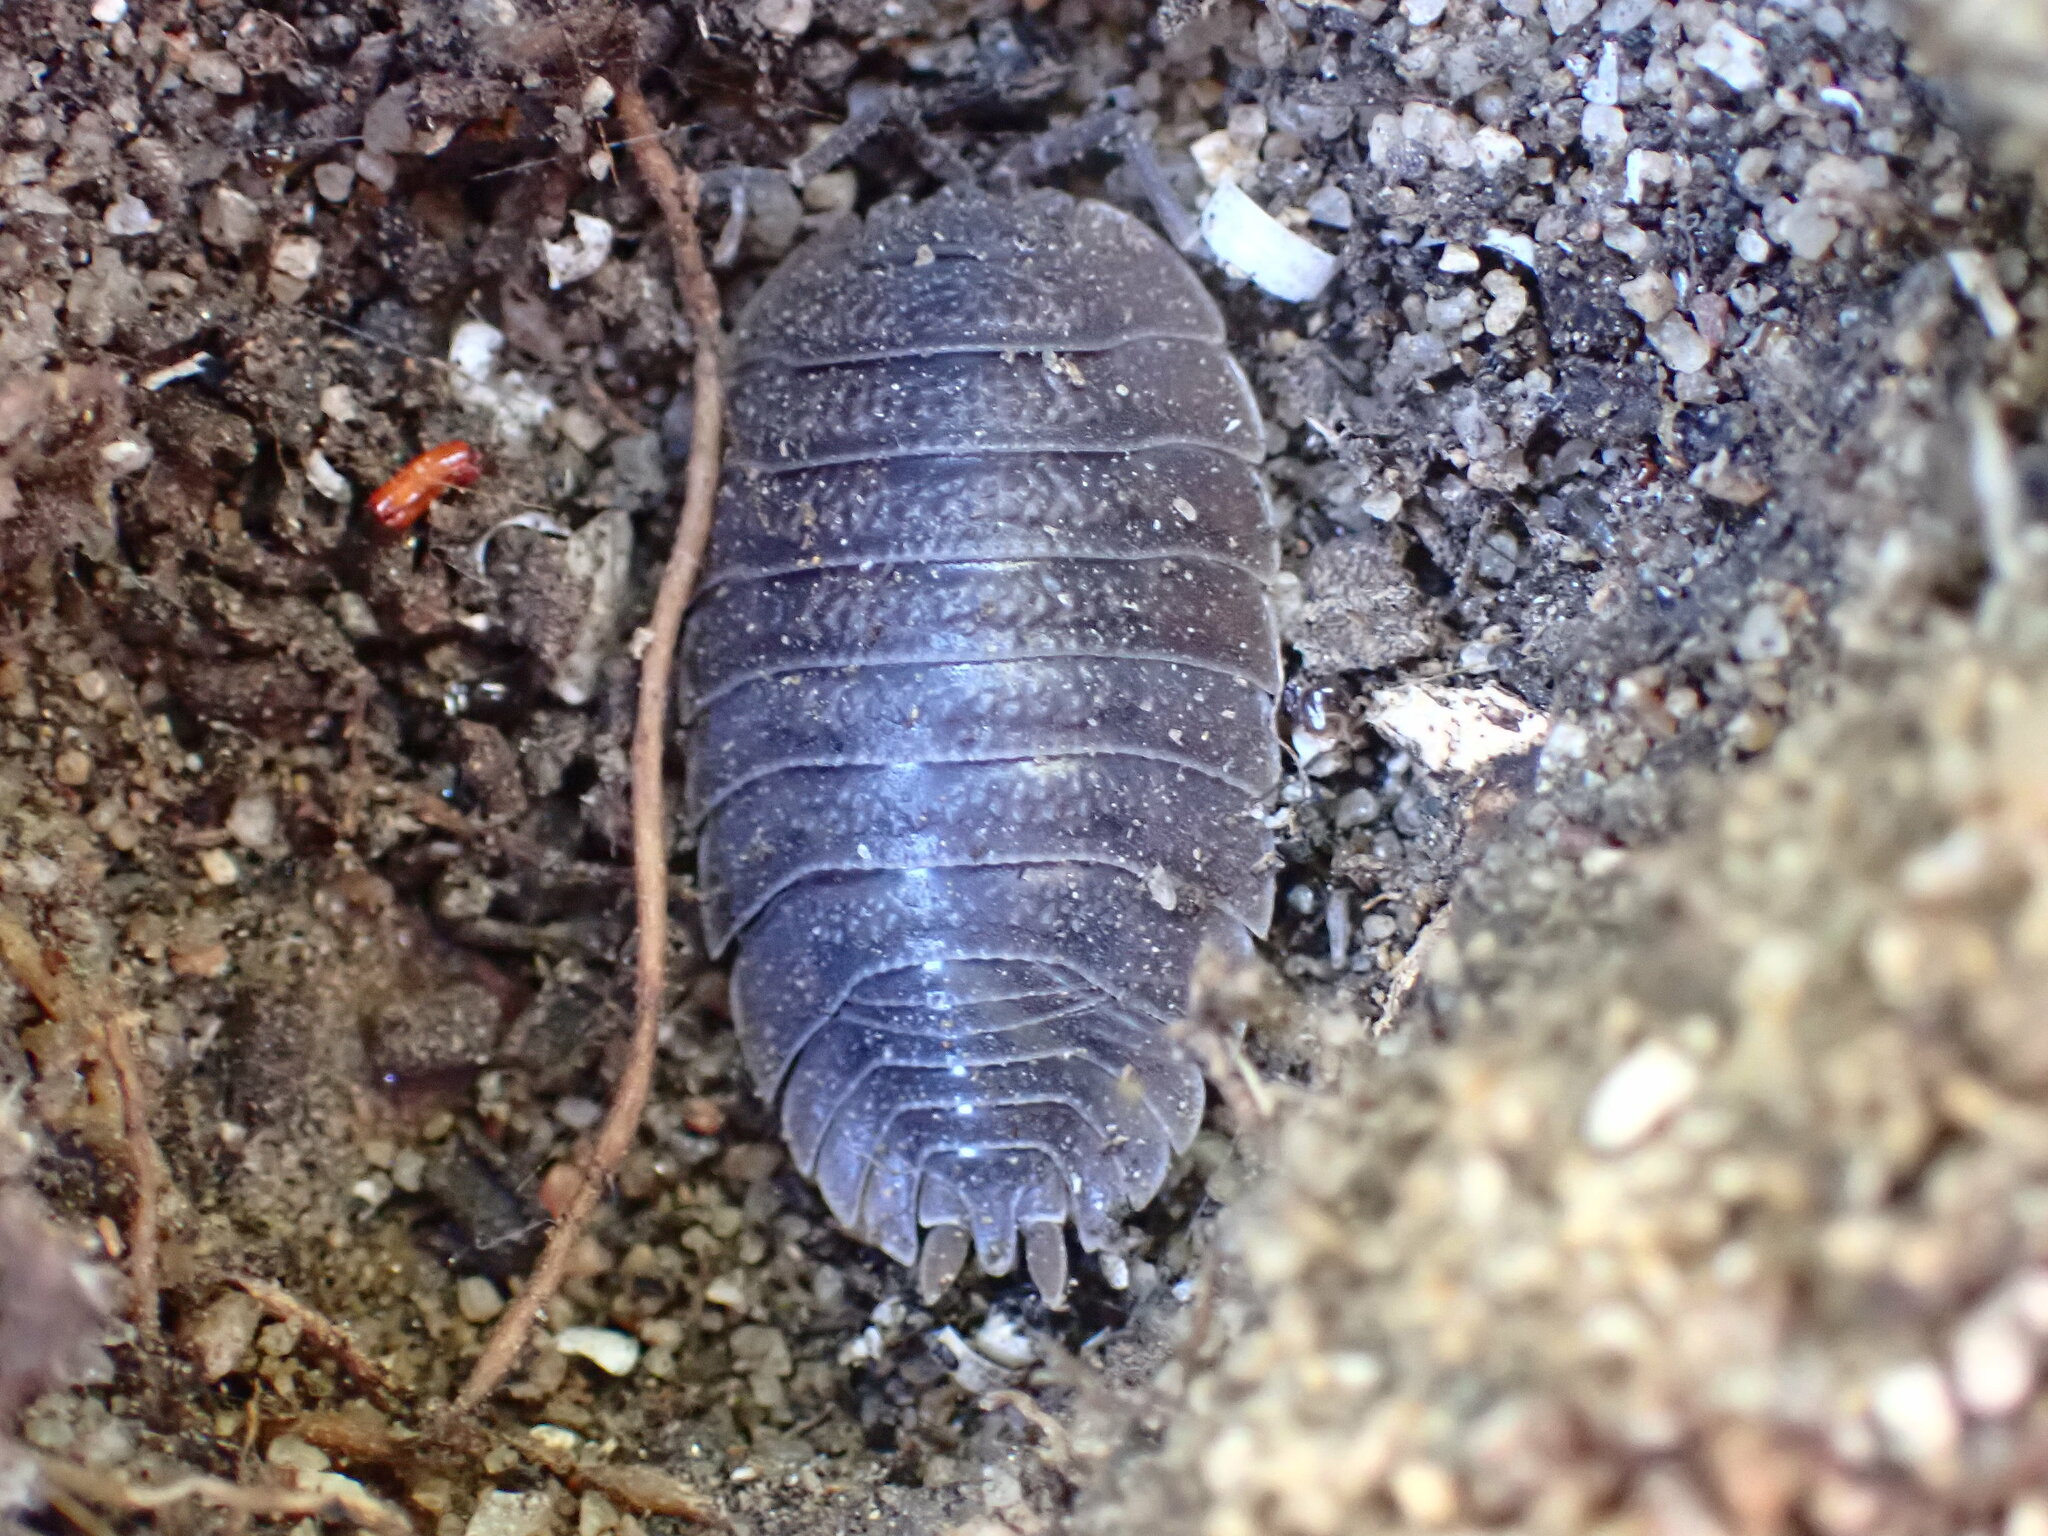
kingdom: Animalia
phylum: Arthropoda
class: Malacostraca
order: Isopoda
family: Porcellionidae
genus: Porcellio
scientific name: Porcellio dilatatus
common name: Isopod
